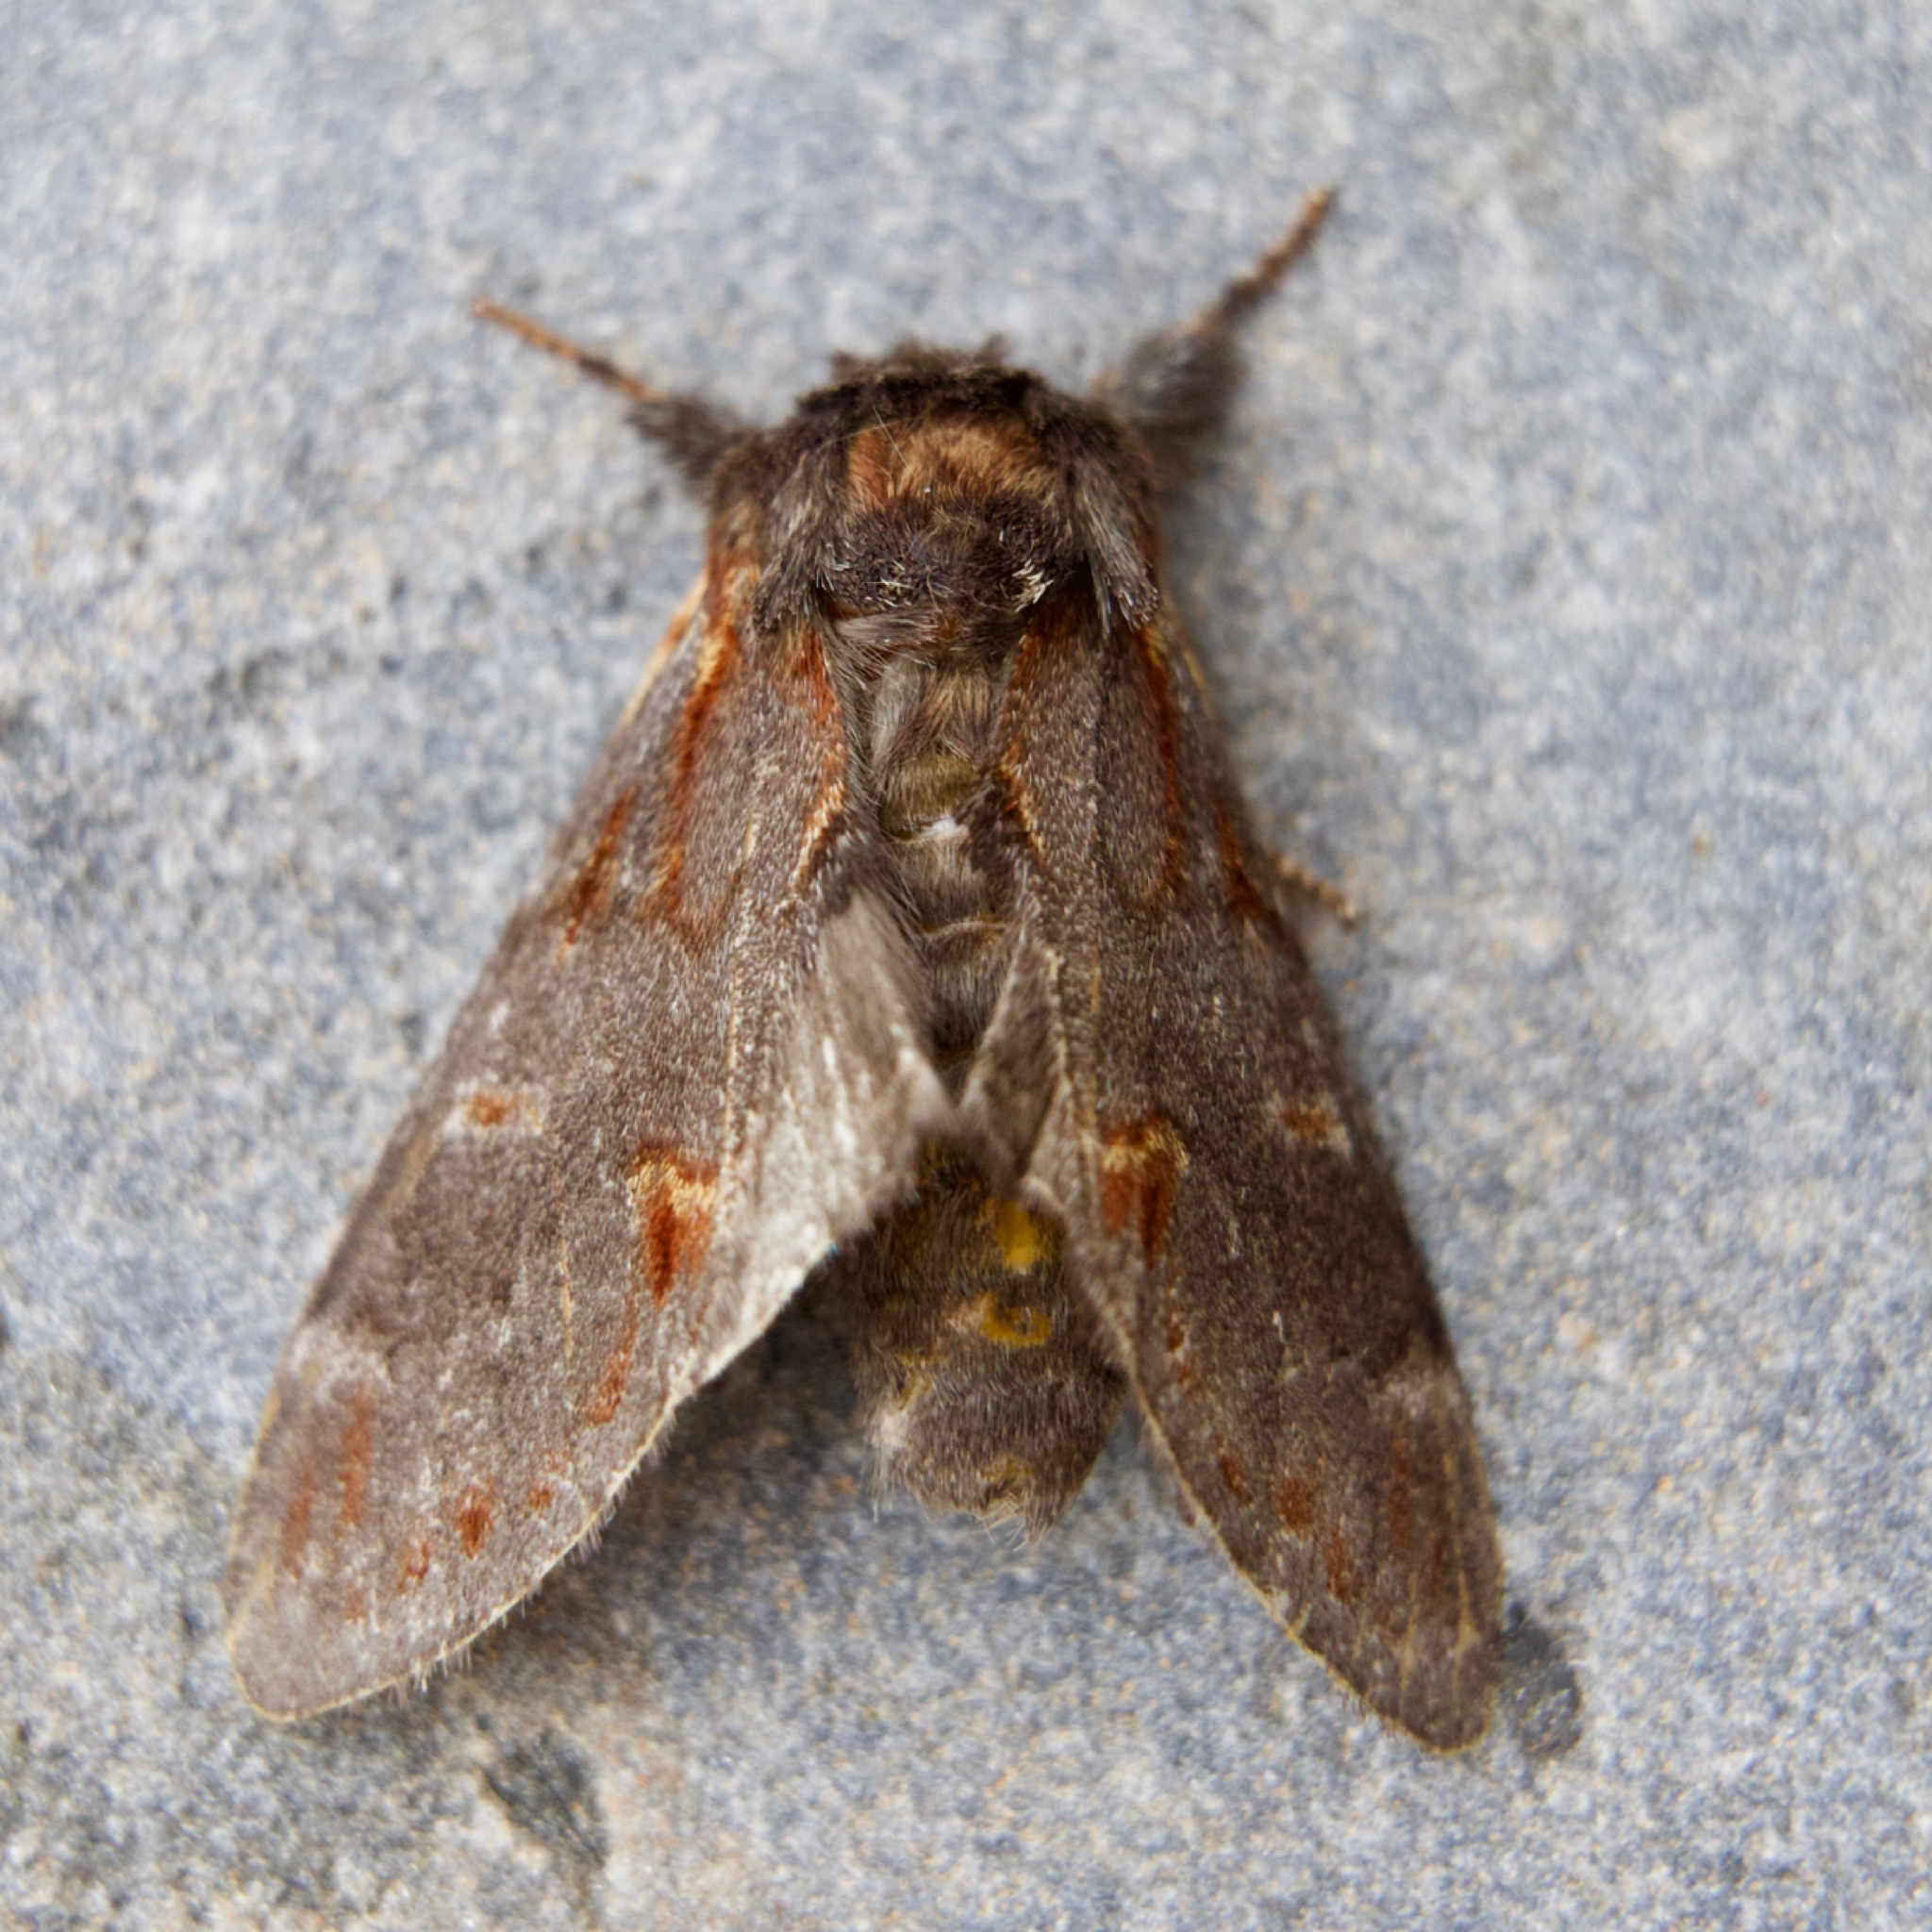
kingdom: Animalia
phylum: Arthropoda
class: Insecta
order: Lepidoptera
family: Notodontidae
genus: Notodonta
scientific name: Notodonta dromedarius
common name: Iron prominent
